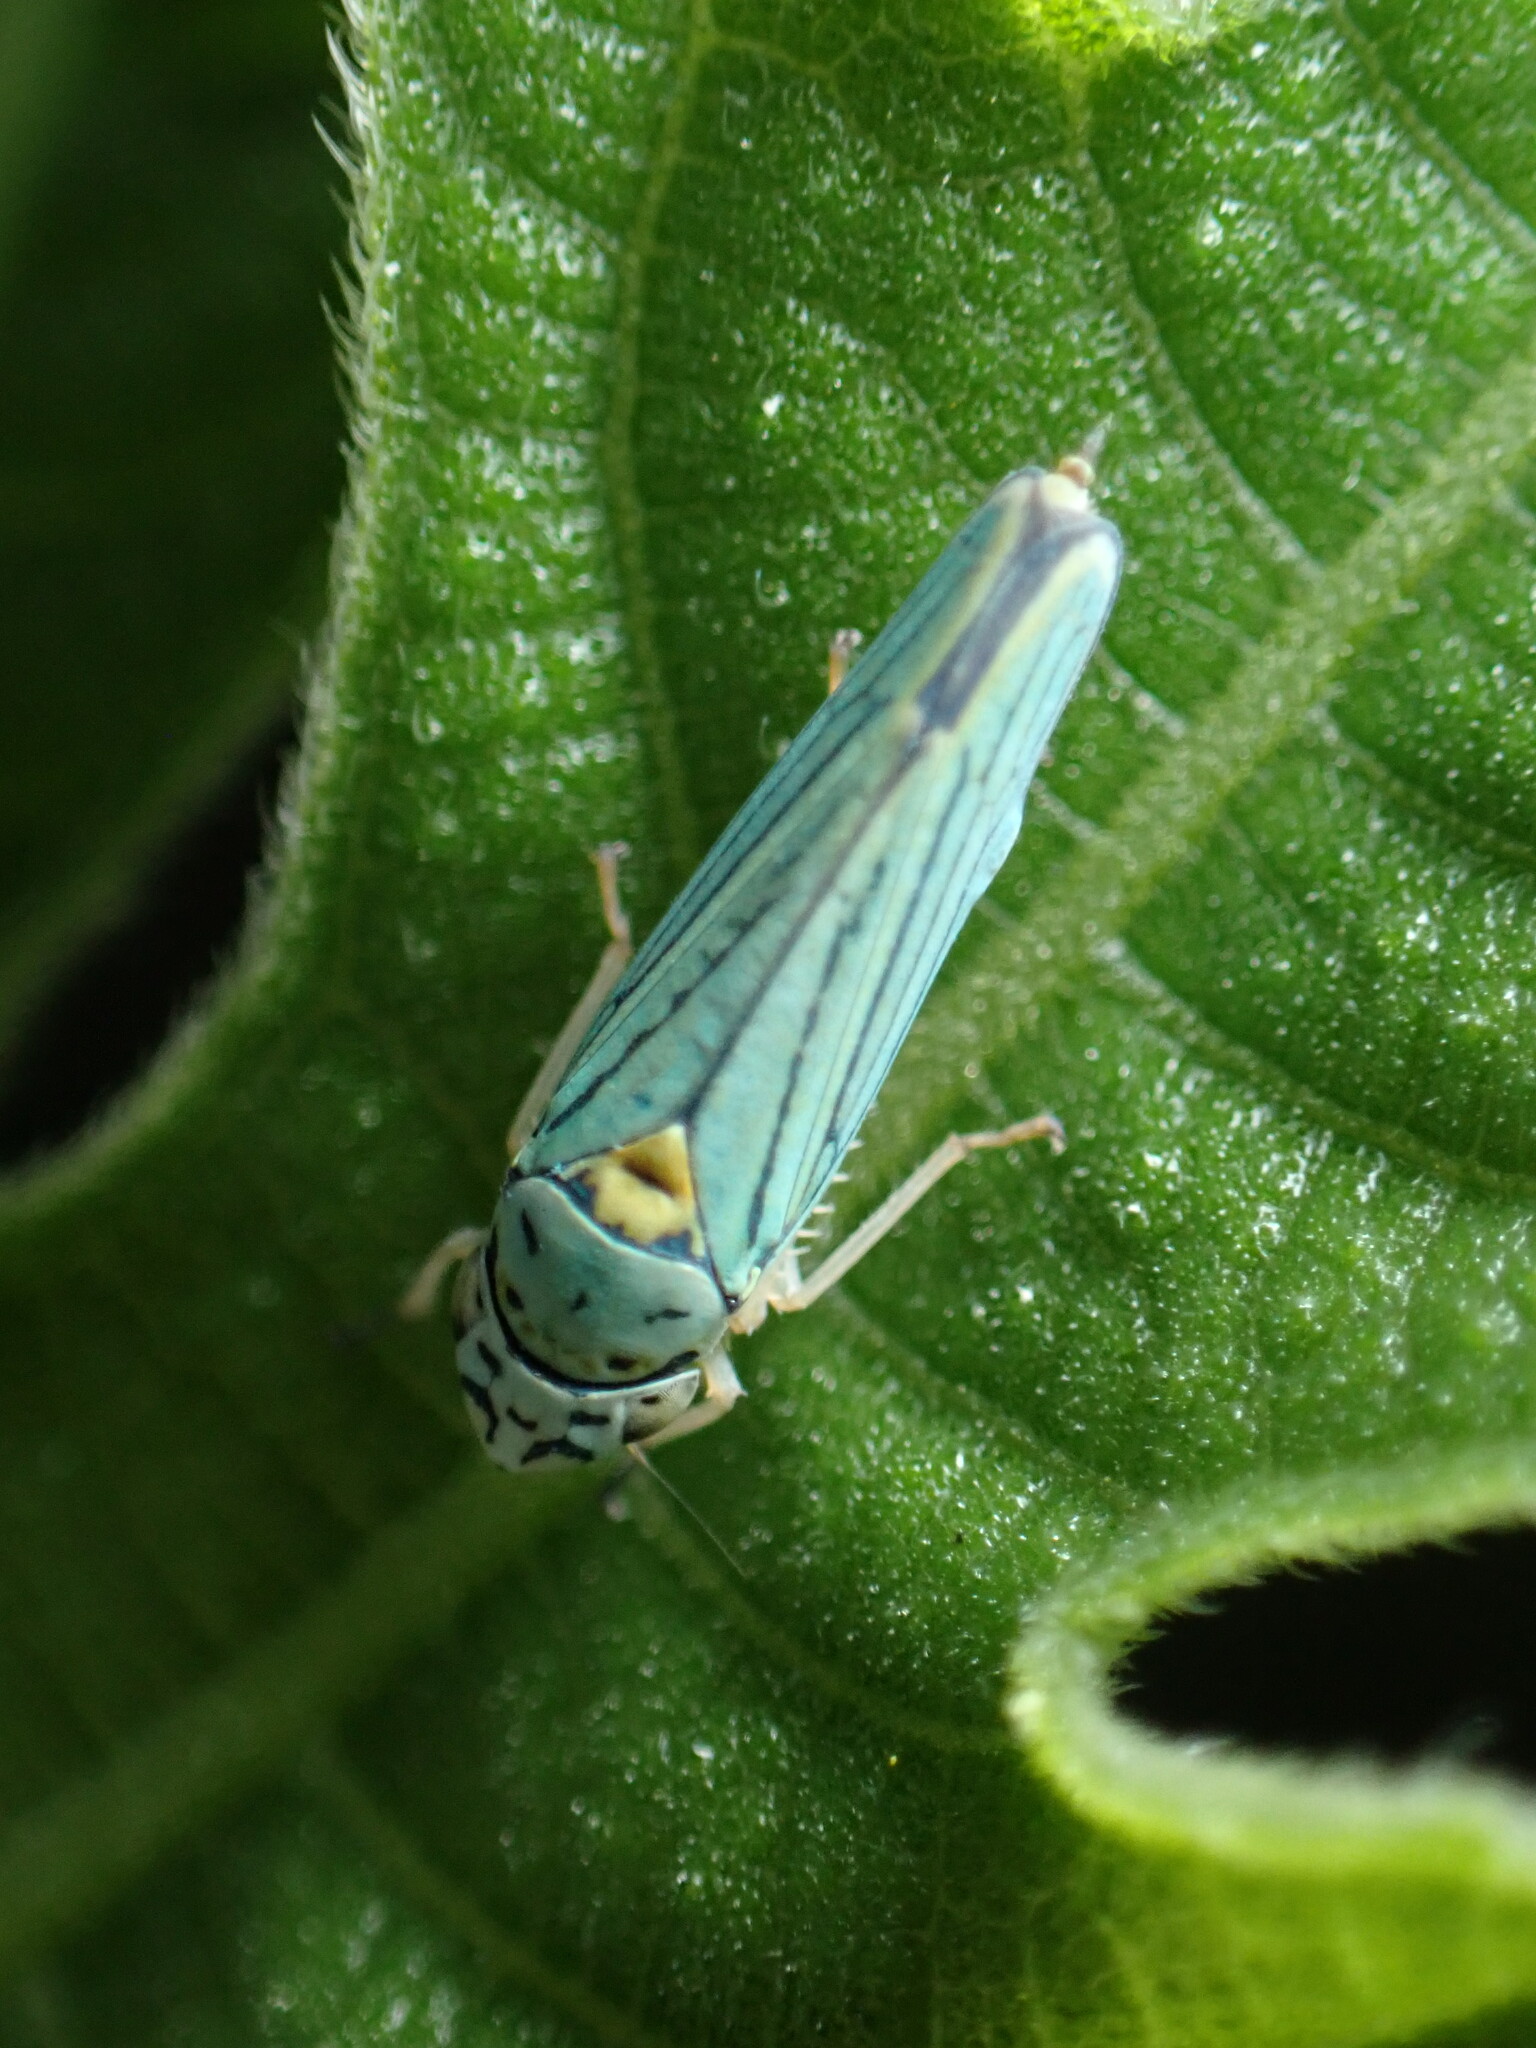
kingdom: Animalia
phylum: Arthropoda
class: Insecta
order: Hemiptera
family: Cicadellidae
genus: Graphocephala
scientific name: Graphocephala atropunctata
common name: Blue-green sharpshooter
